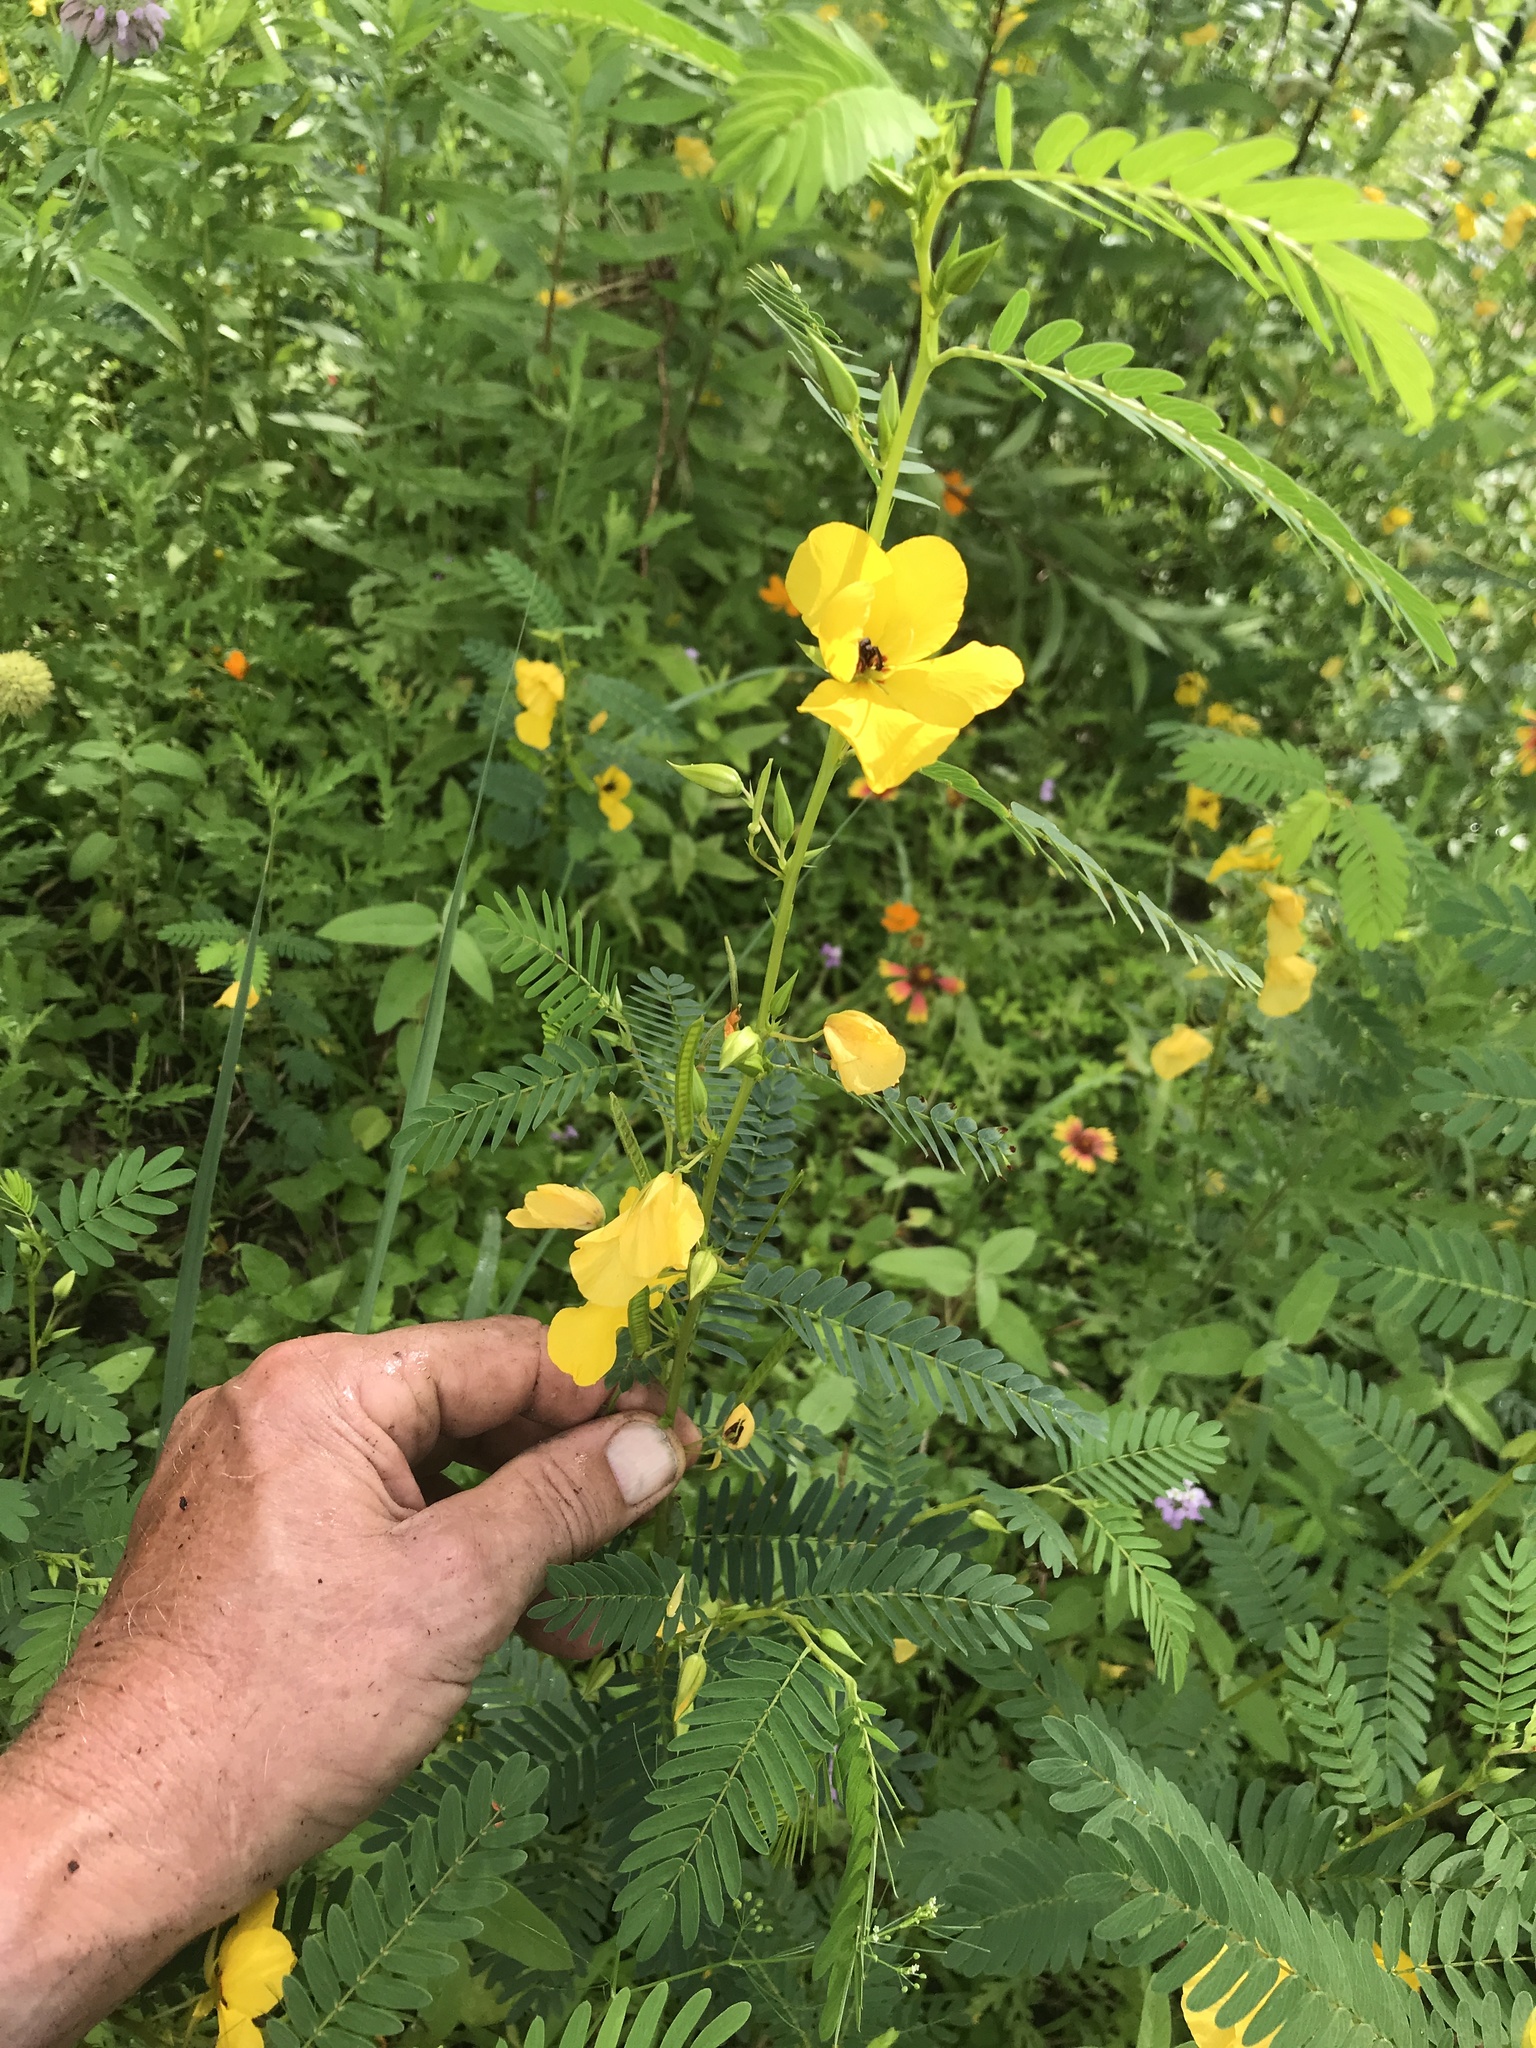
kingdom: Plantae
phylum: Tracheophyta
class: Magnoliopsida
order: Fabales
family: Fabaceae
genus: Chamaecrista
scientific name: Chamaecrista fasciculata
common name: Golden cassia
